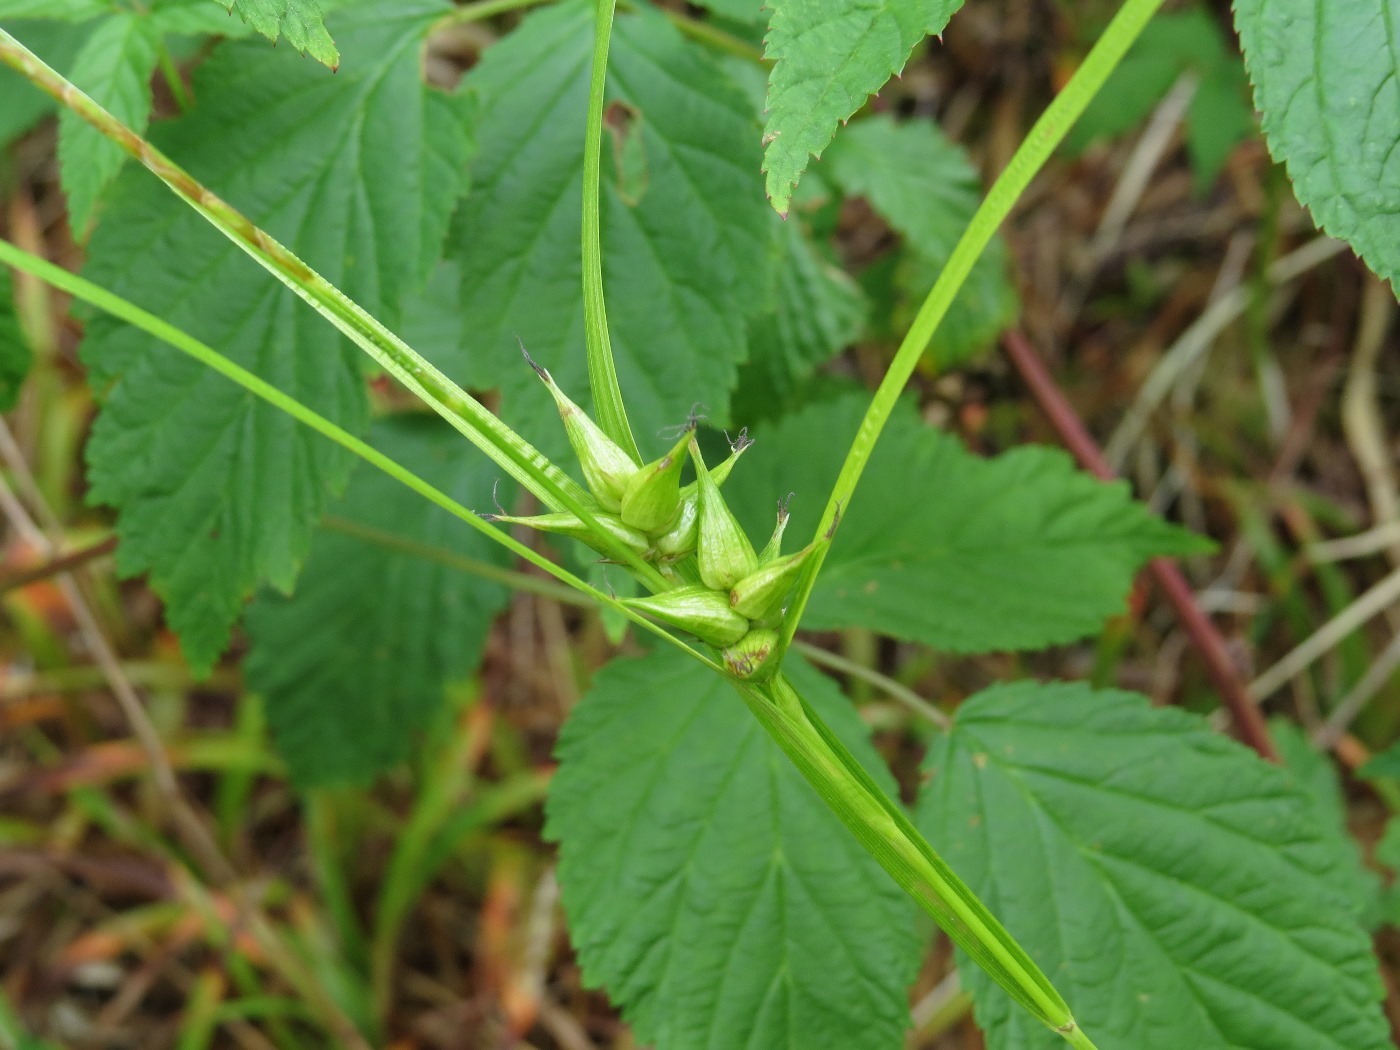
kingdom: Plantae
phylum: Tracheophyta
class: Liliopsida
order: Poales
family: Cyperaceae
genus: Carex
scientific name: Carex intumescens
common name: Greater bladder sedge
